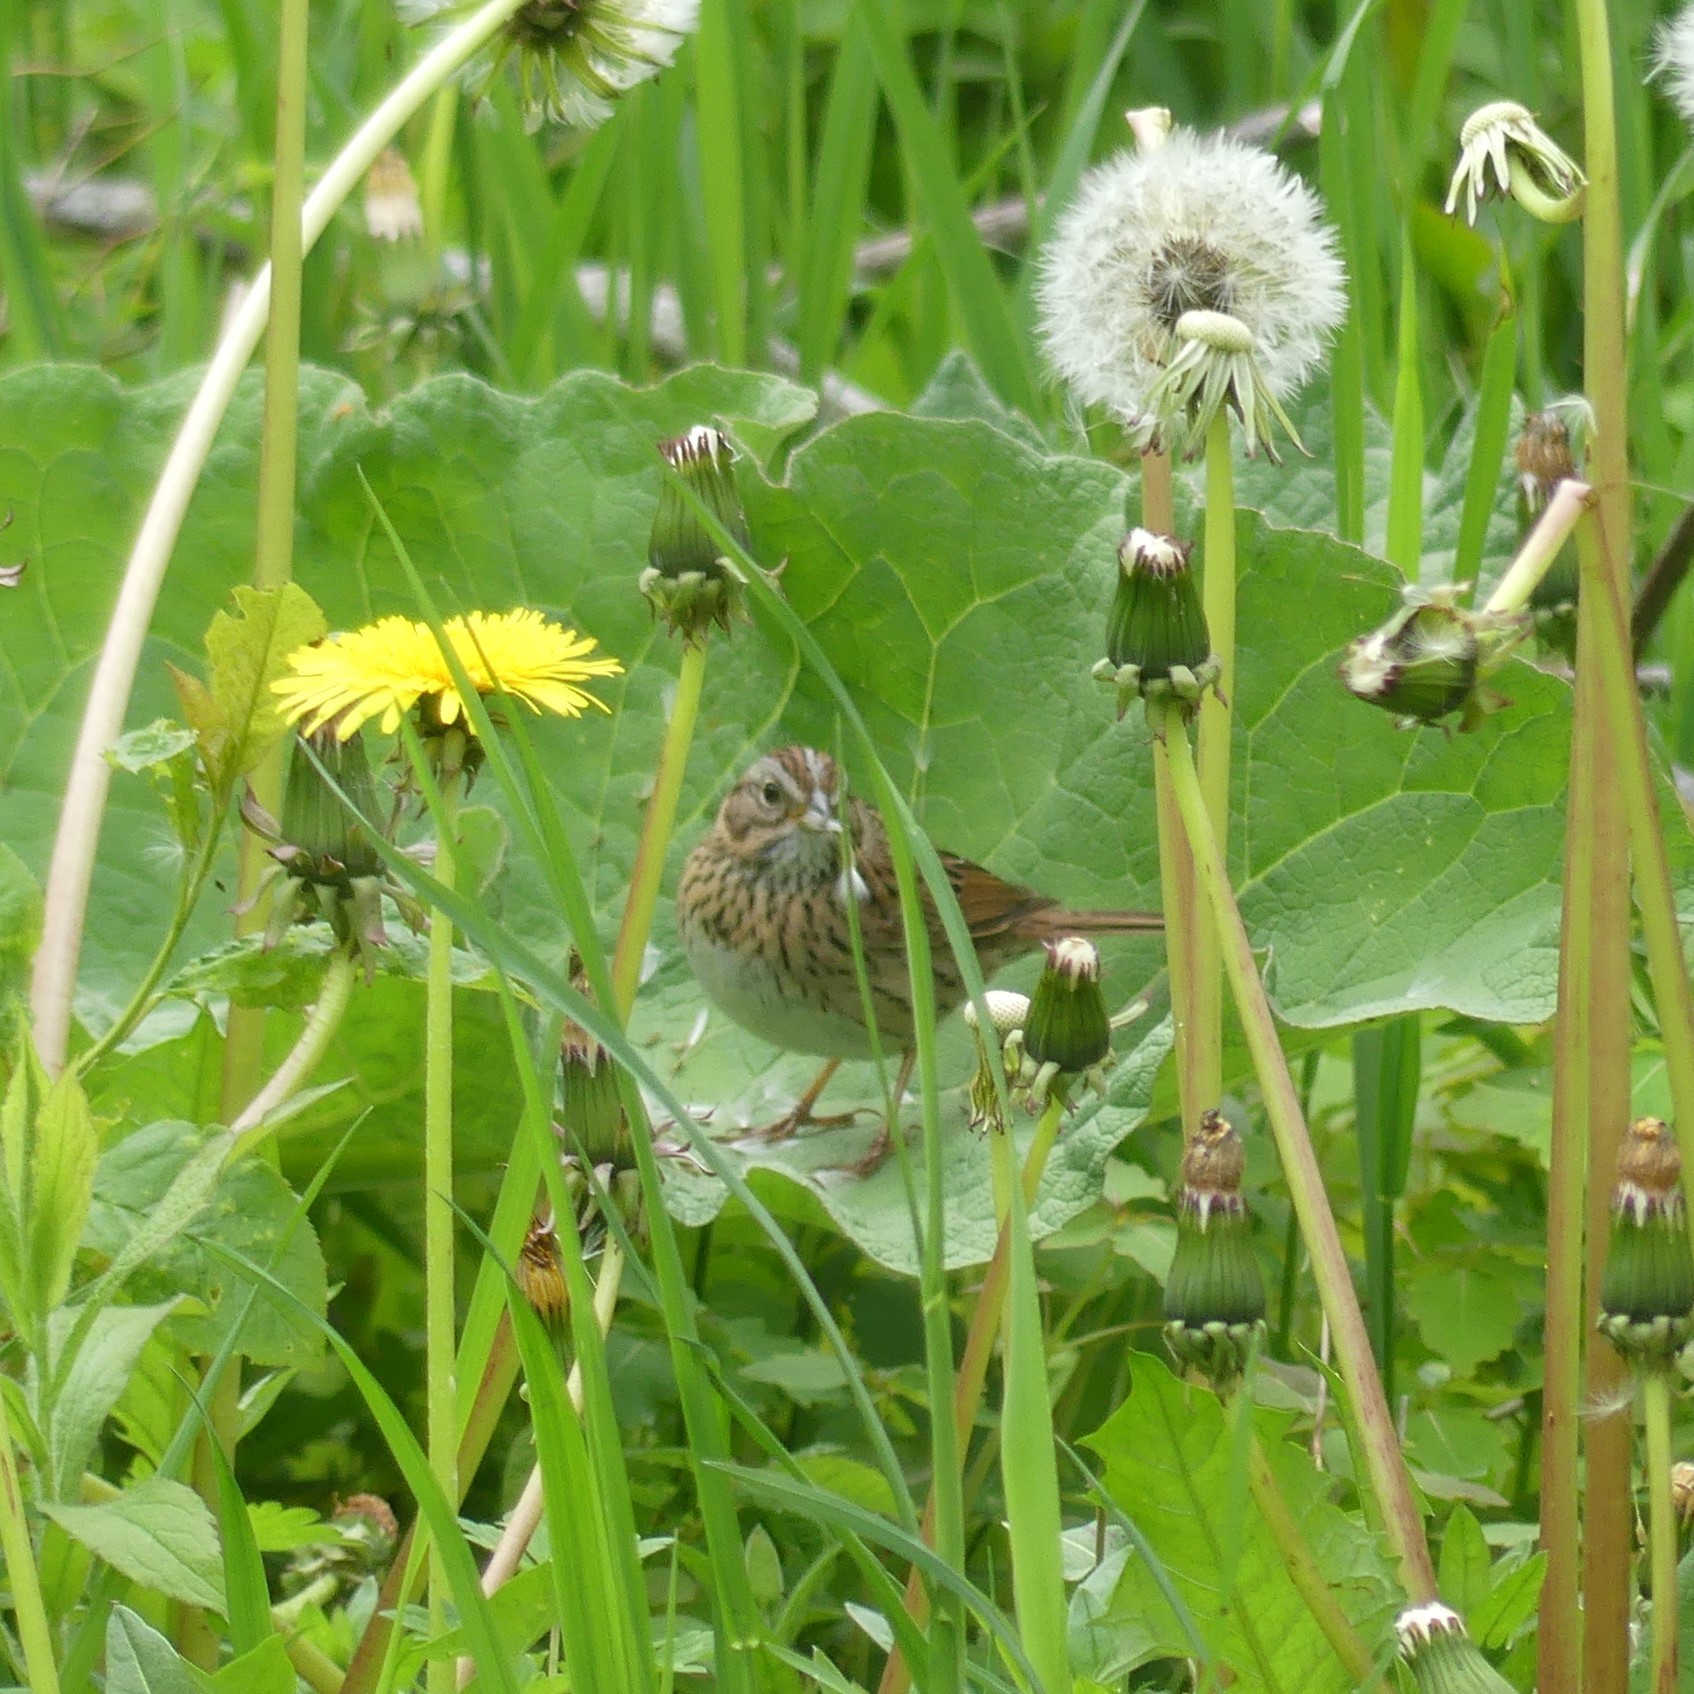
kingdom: Animalia
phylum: Chordata
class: Aves
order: Passeriformes
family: Passerellidae
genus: Melospiza
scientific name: Melospiza lincolnii
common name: Lincoln's sparrow
